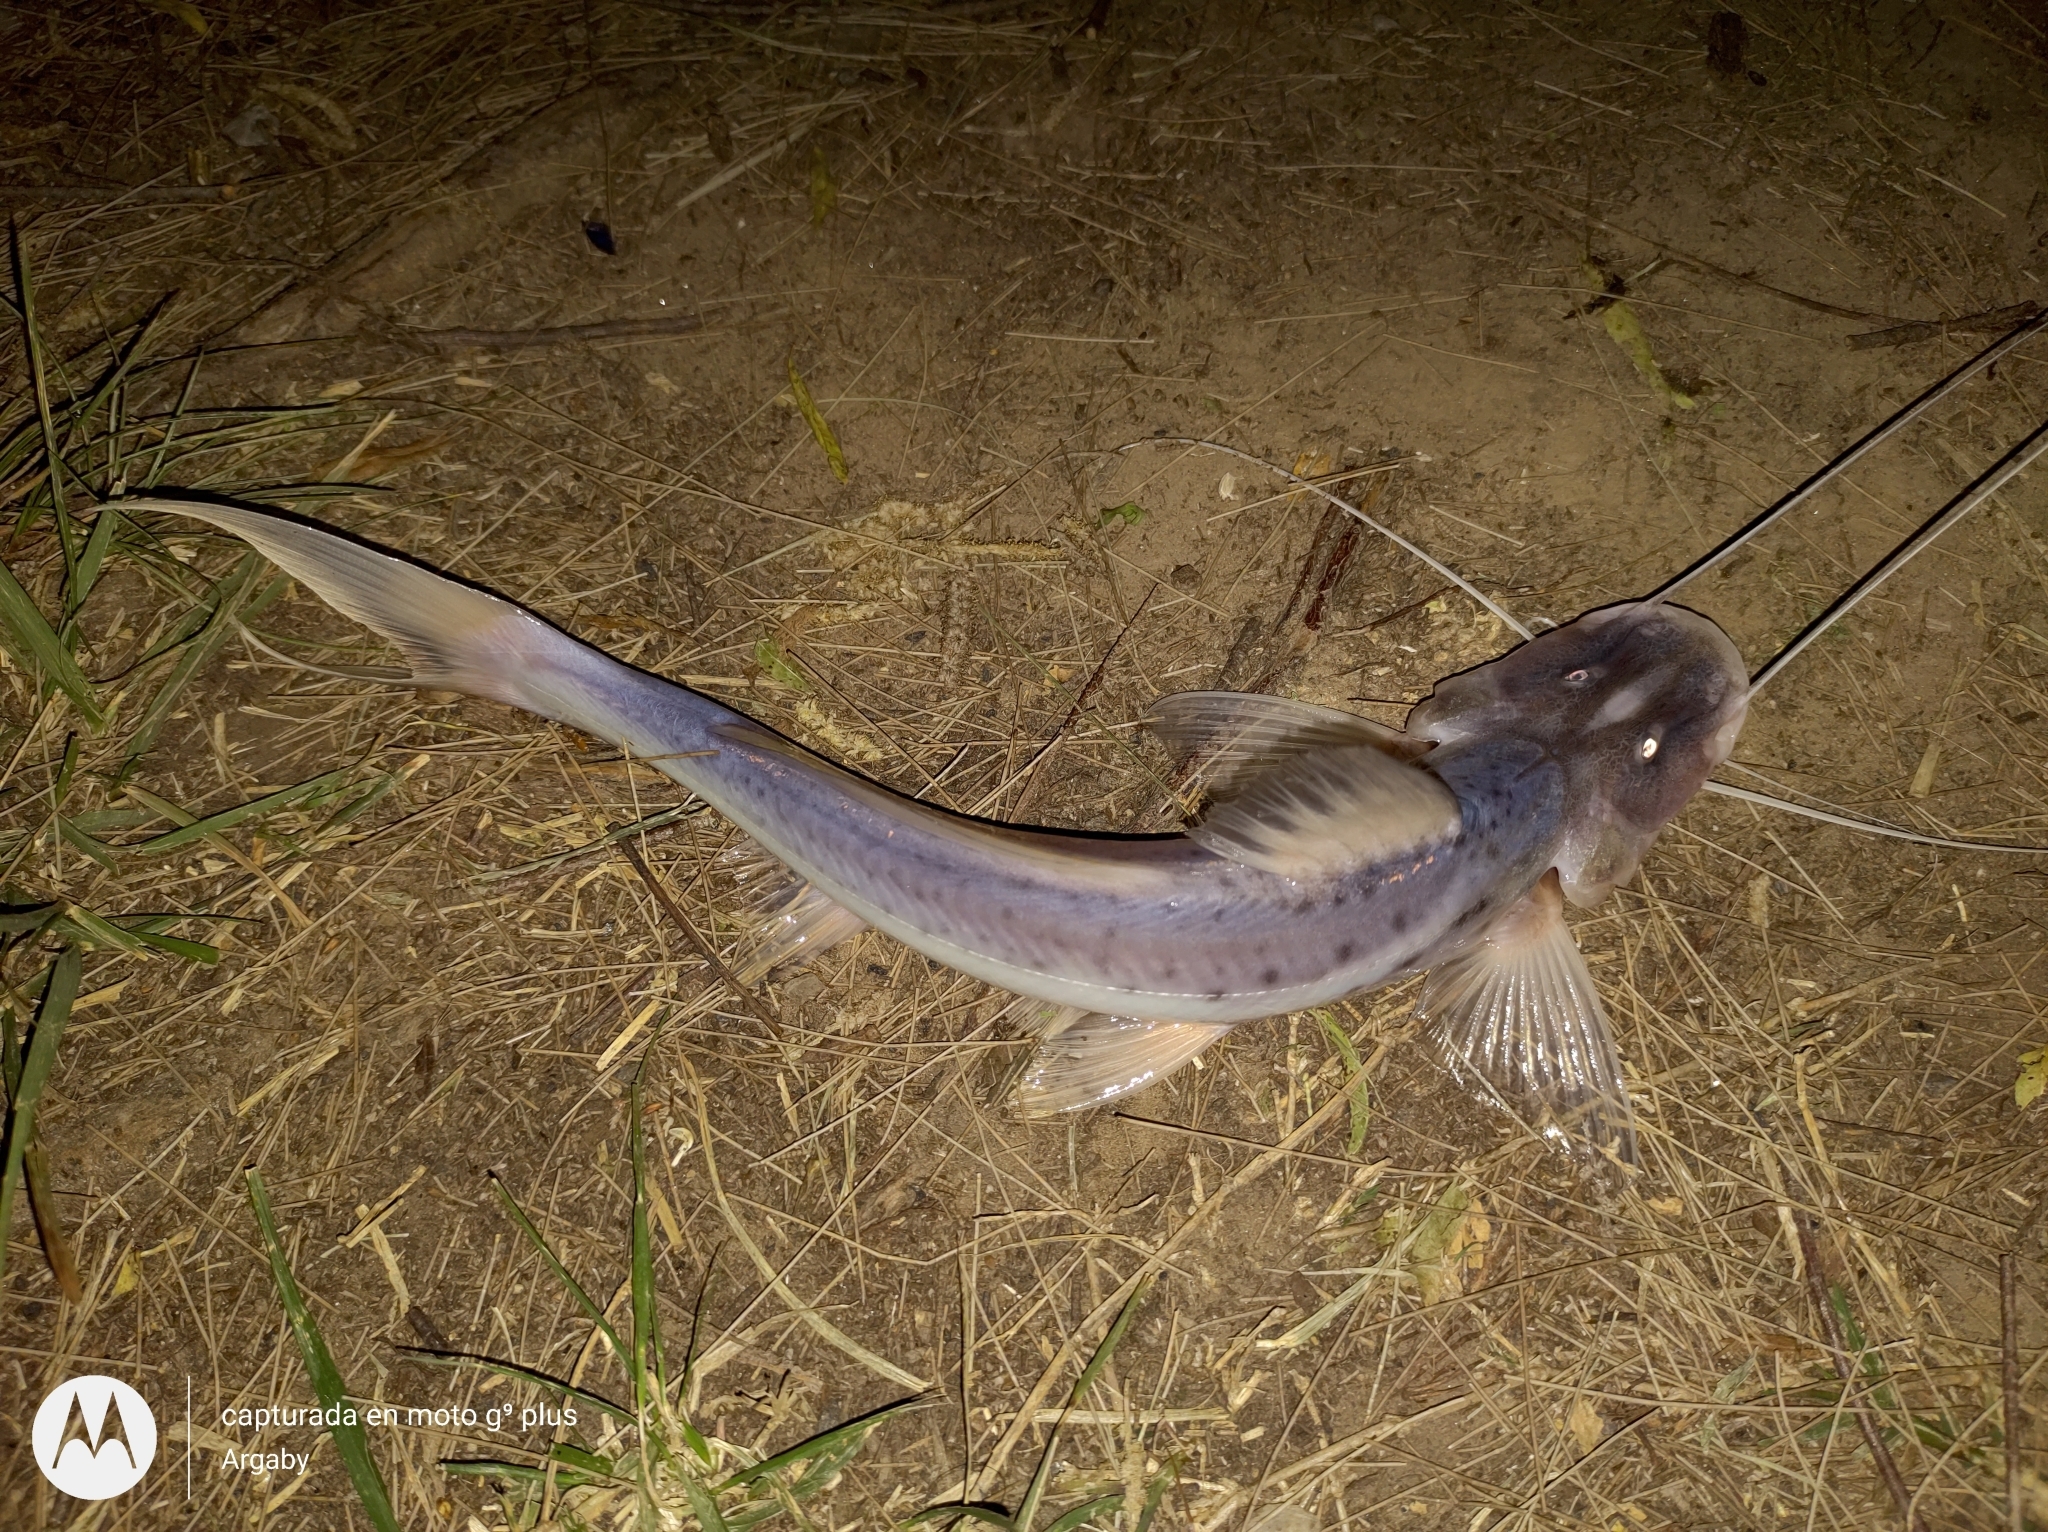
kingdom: Animalia
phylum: Chordata
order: Siluriformes
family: Pimelodidae
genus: Luciopimelodus
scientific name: Luciopimelodus pati
